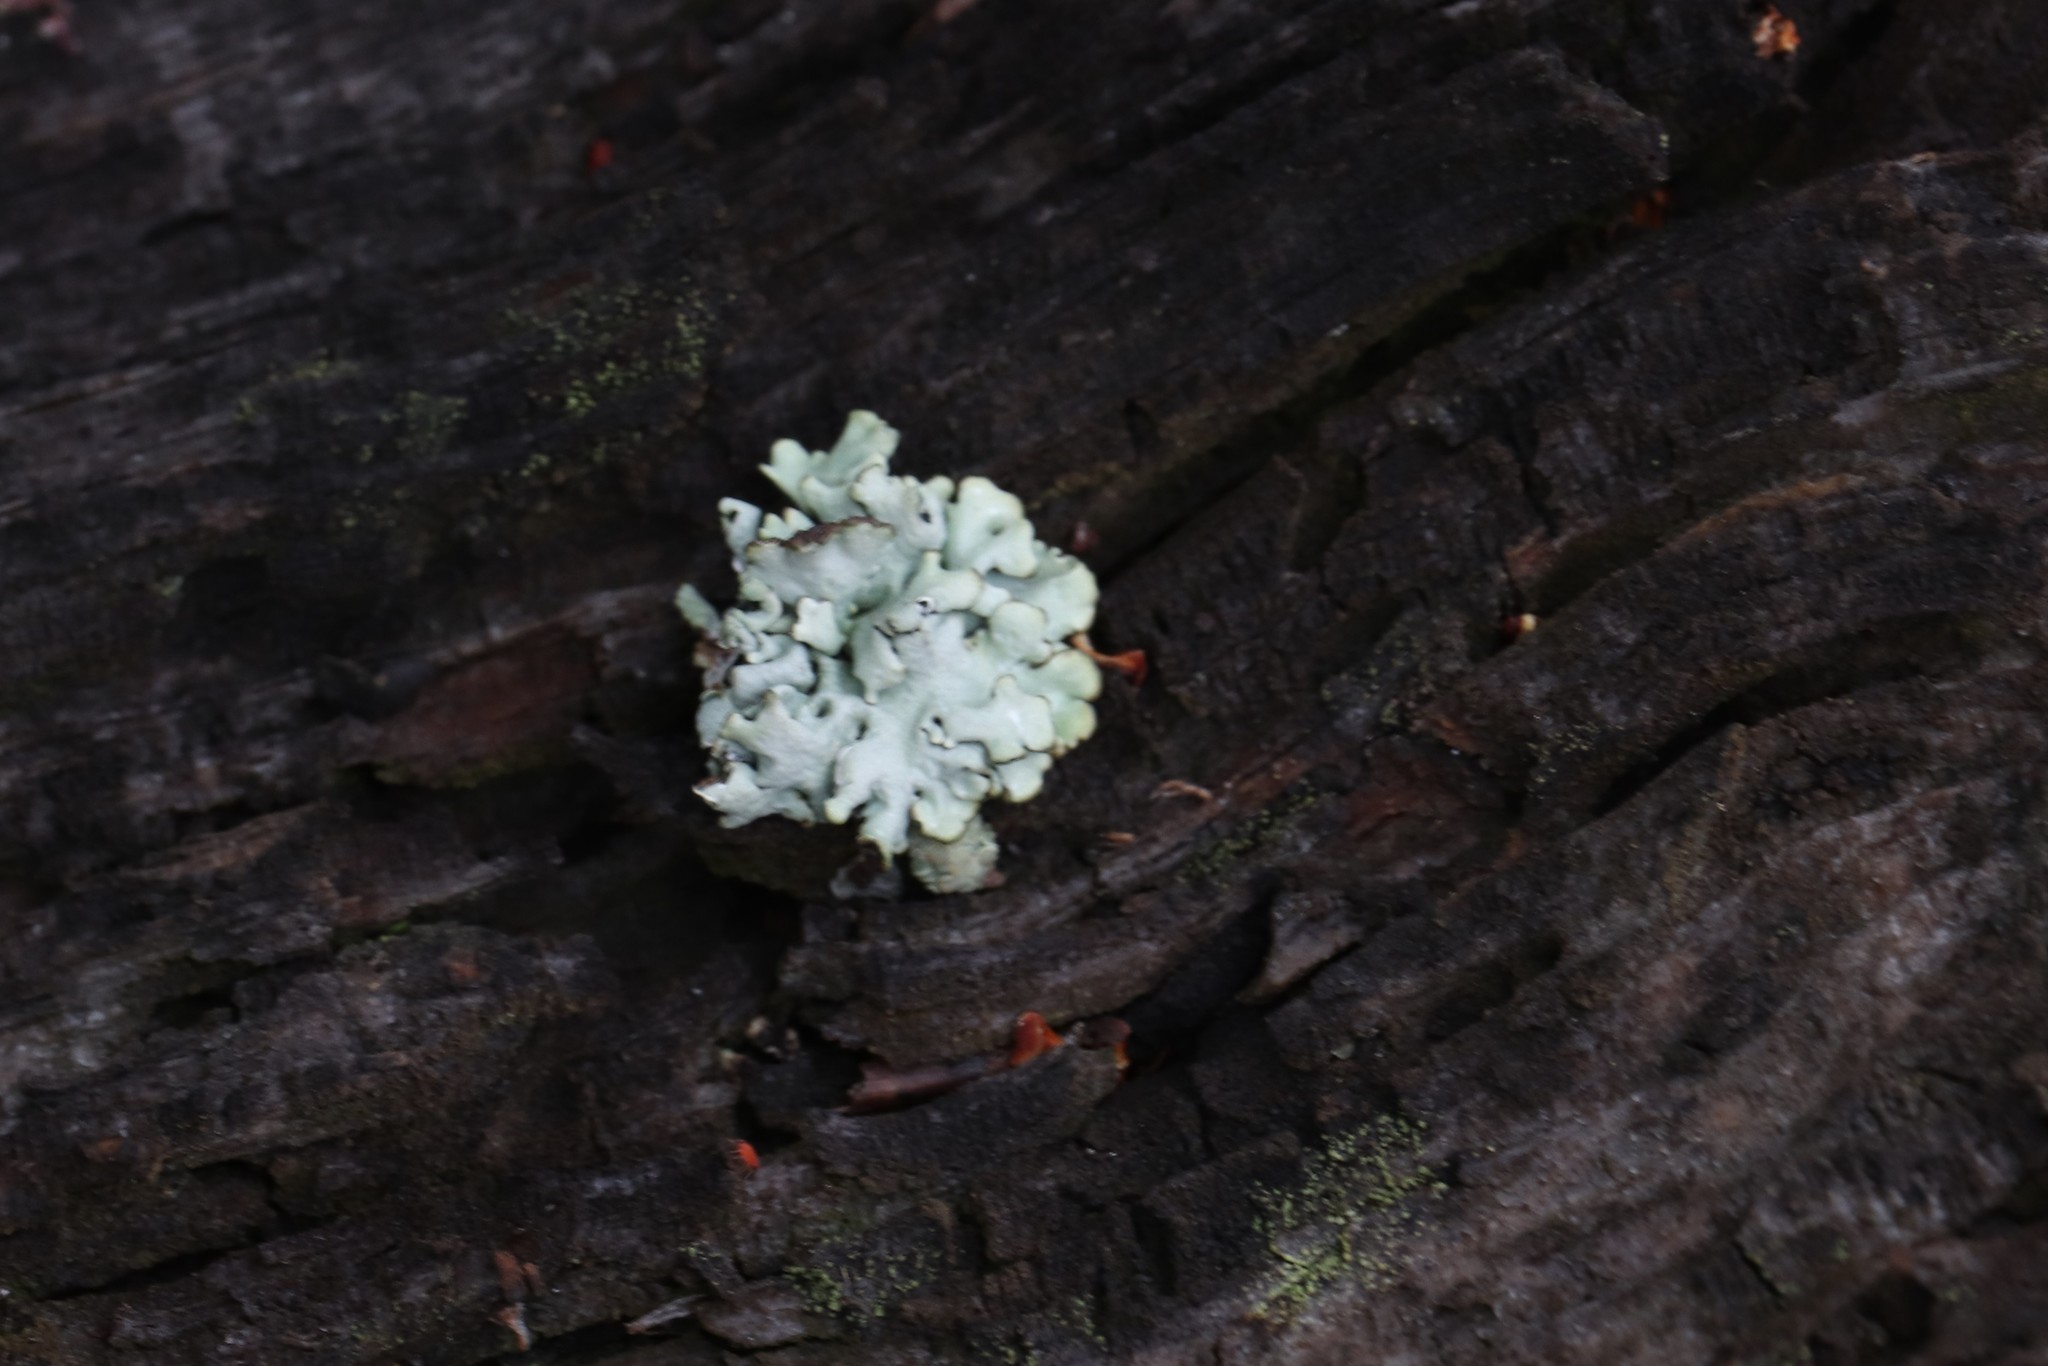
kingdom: Fungi
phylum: Ascomycota
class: Lecanoromycetes
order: Lecanorales
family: Parmeliaceae
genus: Hypogymnia
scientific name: Hypogymnia physodes
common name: Dark crottle
